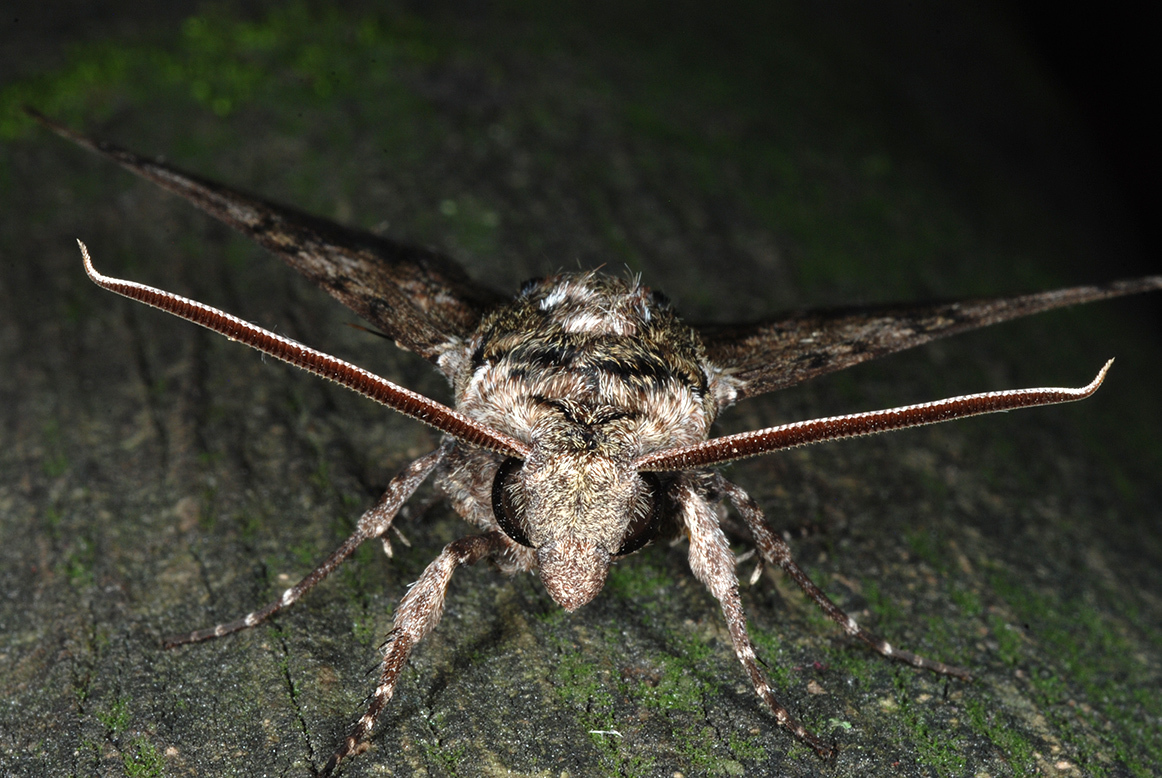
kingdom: Animalia
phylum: Arthropoda
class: Insecta
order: Lepidoptera
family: Sphingidae
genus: Manduca
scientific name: Manduca sexta
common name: Carolina sphinx
